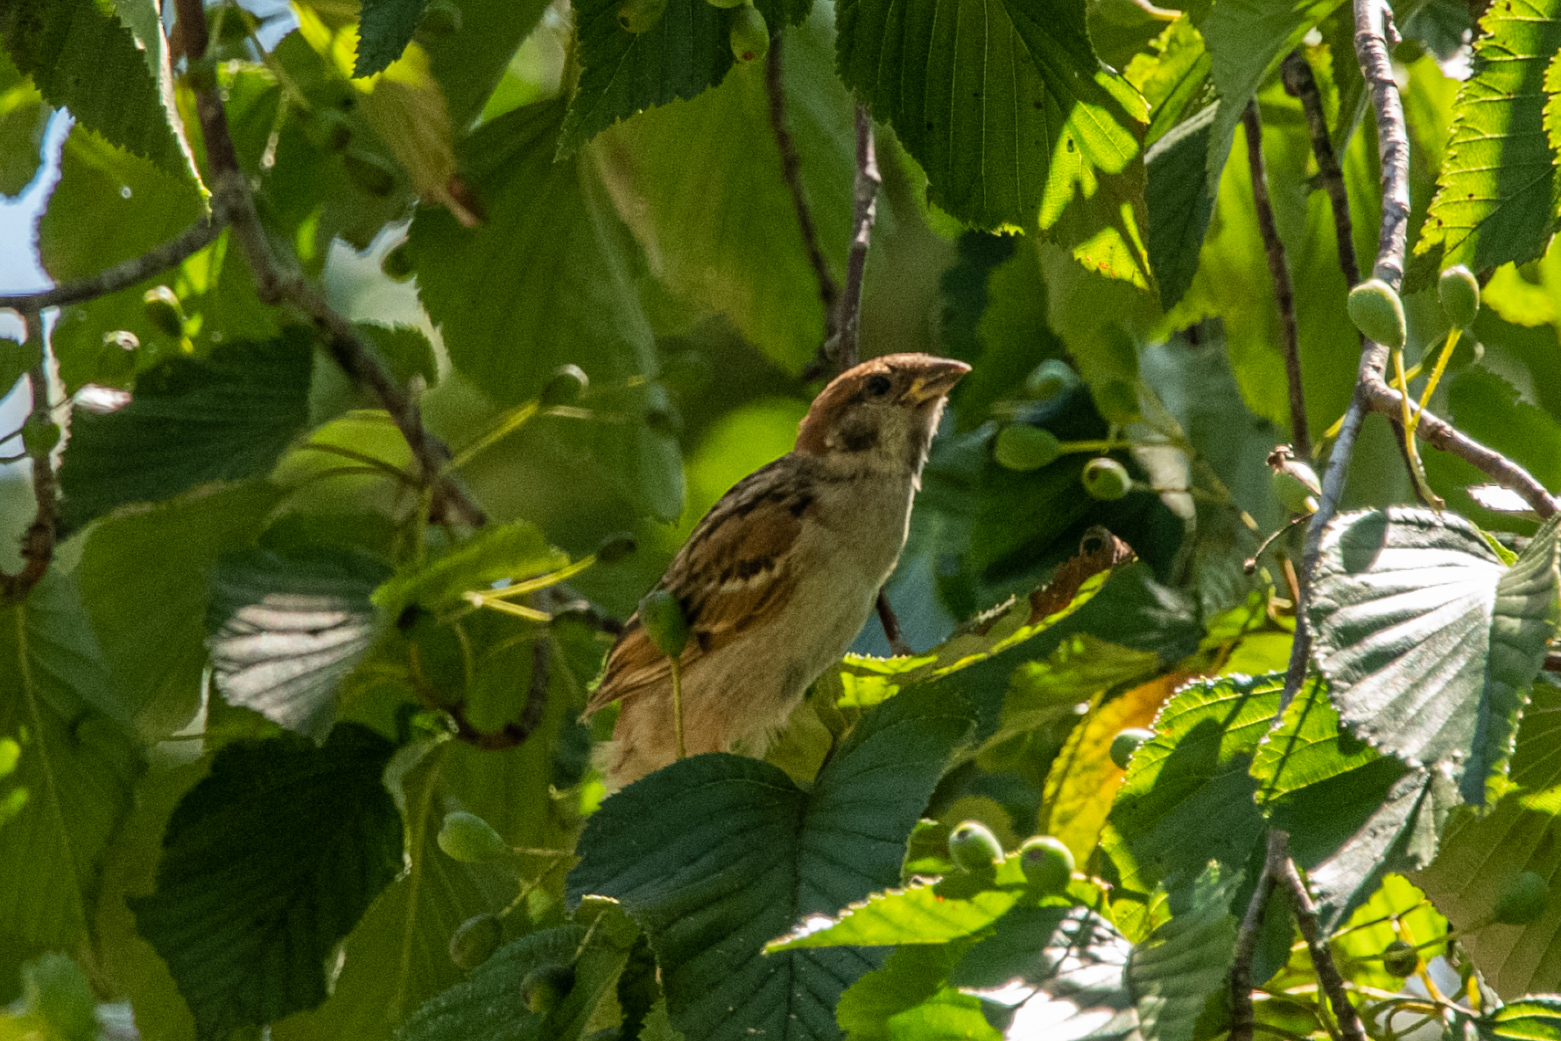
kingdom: Animalia
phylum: Chordata
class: Aves
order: Passeriformes
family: Passeridae
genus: Passer
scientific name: Passer montanus
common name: Eurasian tree sparrow
